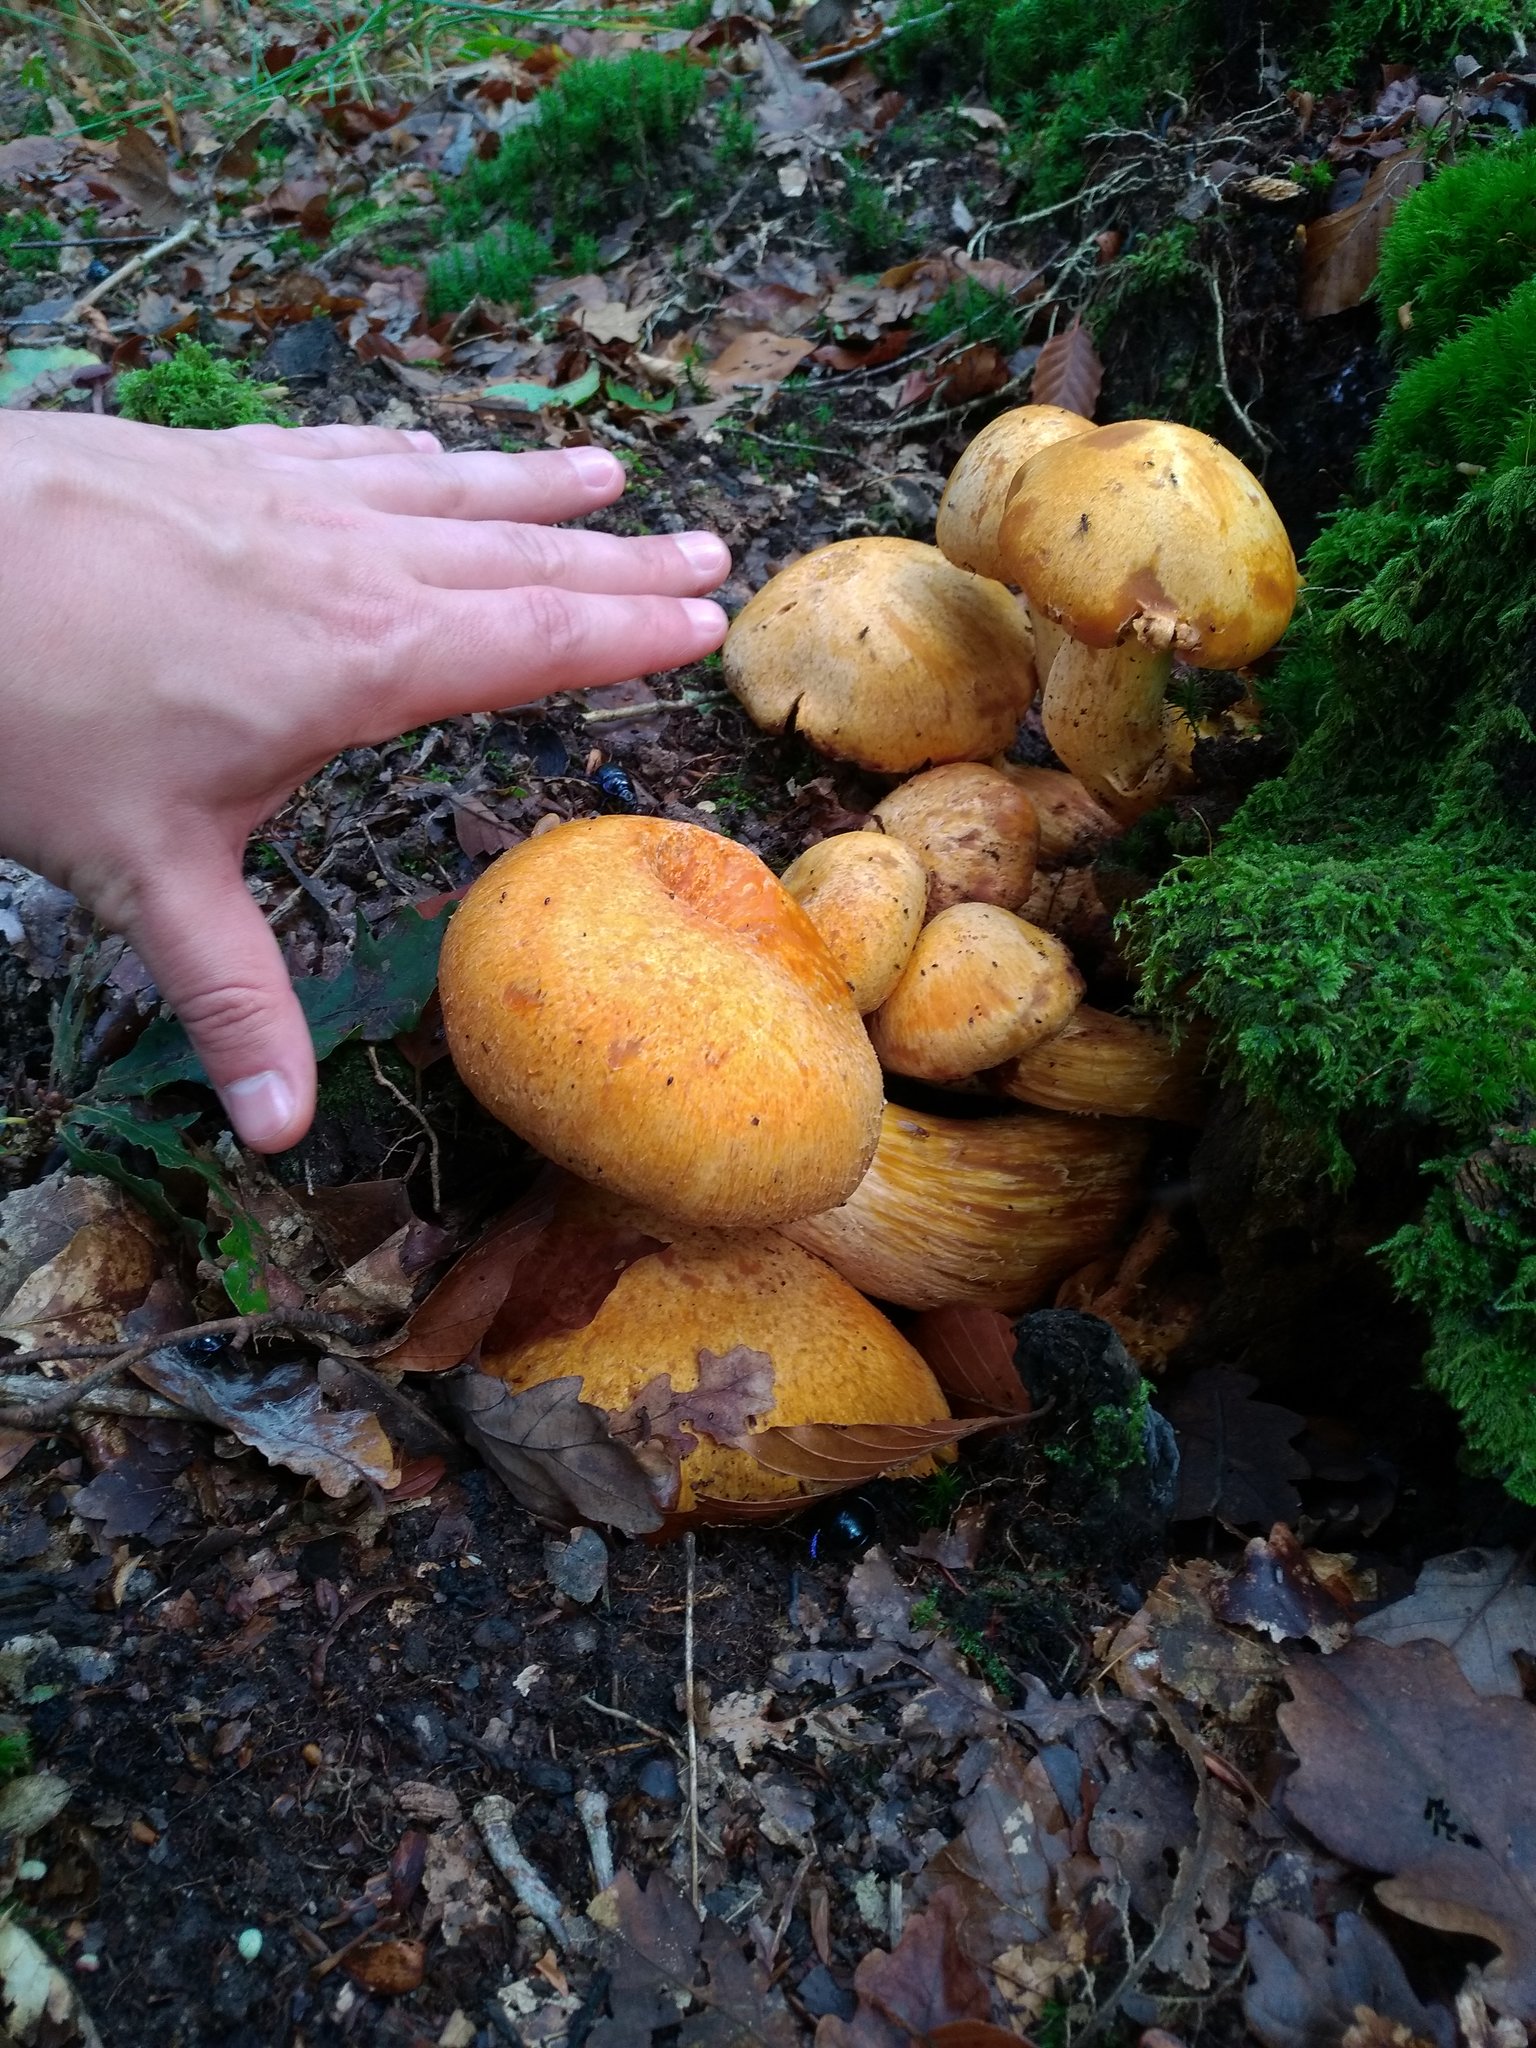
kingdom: Fungi
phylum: Basidiomycota
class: Agaricomycetes
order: Agaricales
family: Hymenogastraceae
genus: Gymnopilus
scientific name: Gymnopilus junonius
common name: Spectacular rustgill
